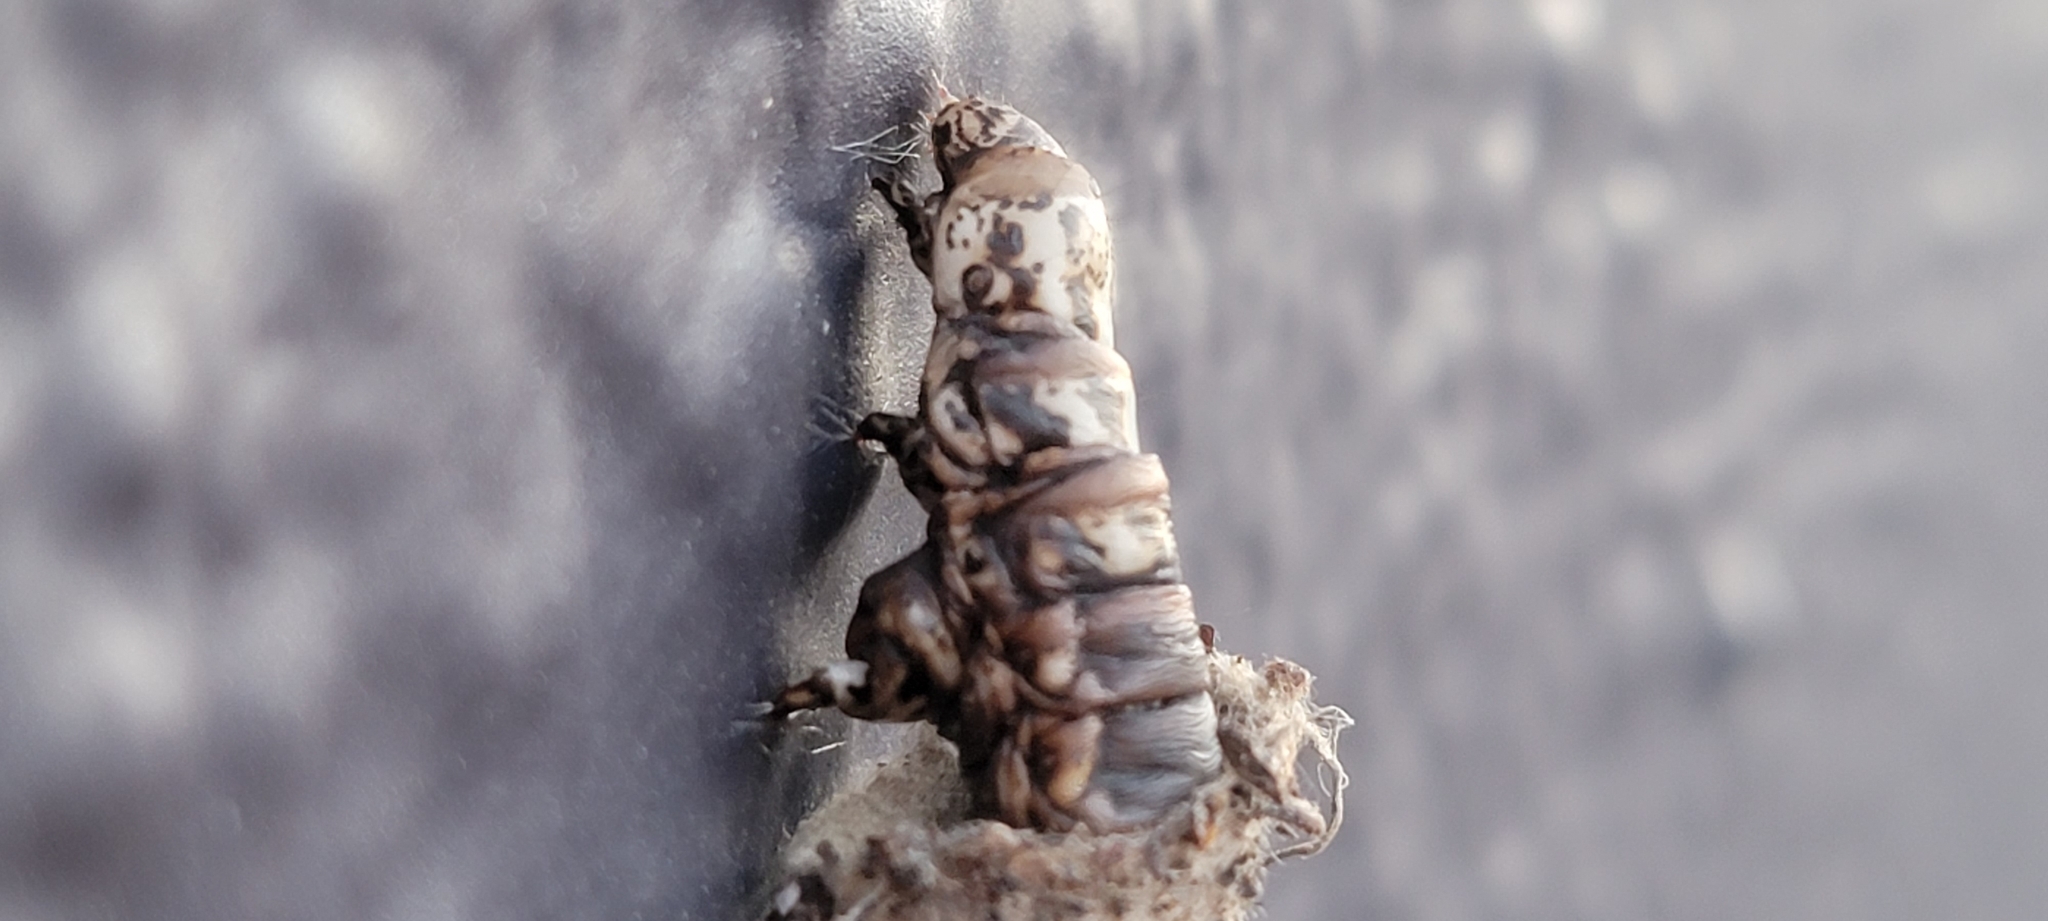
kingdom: Animalia
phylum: Arthropoda
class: Insecta
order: Lepidoptera
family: Psychidae
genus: Oiketicus
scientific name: Oiketicus
